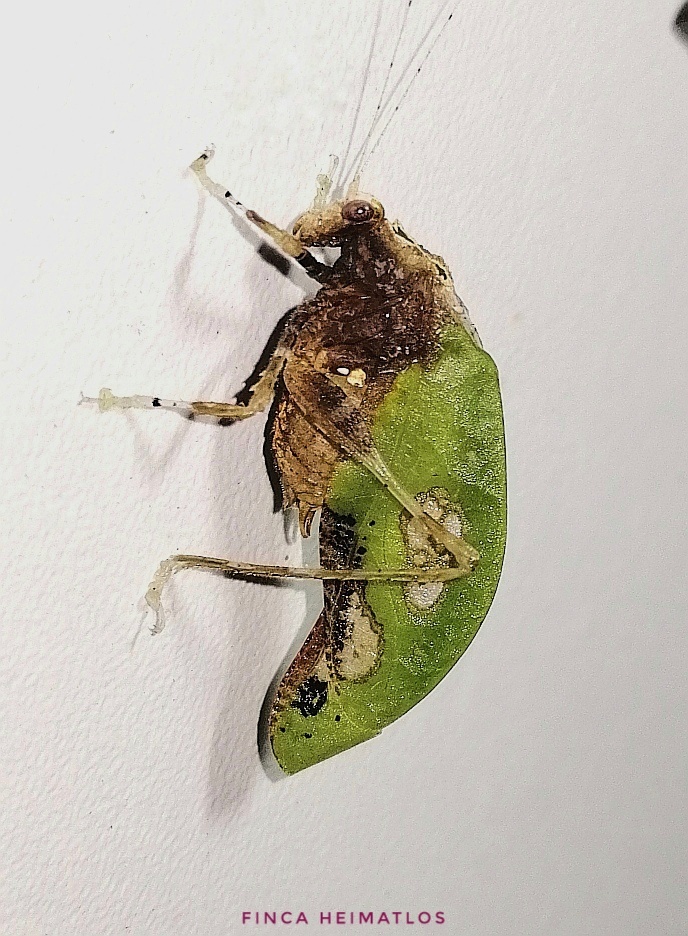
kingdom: Animalia
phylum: Arthropoda
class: Insecta
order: Orthoptera
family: Tettigoniidae
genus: Pycnopalpa
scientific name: Pycnopalpa bicordata
